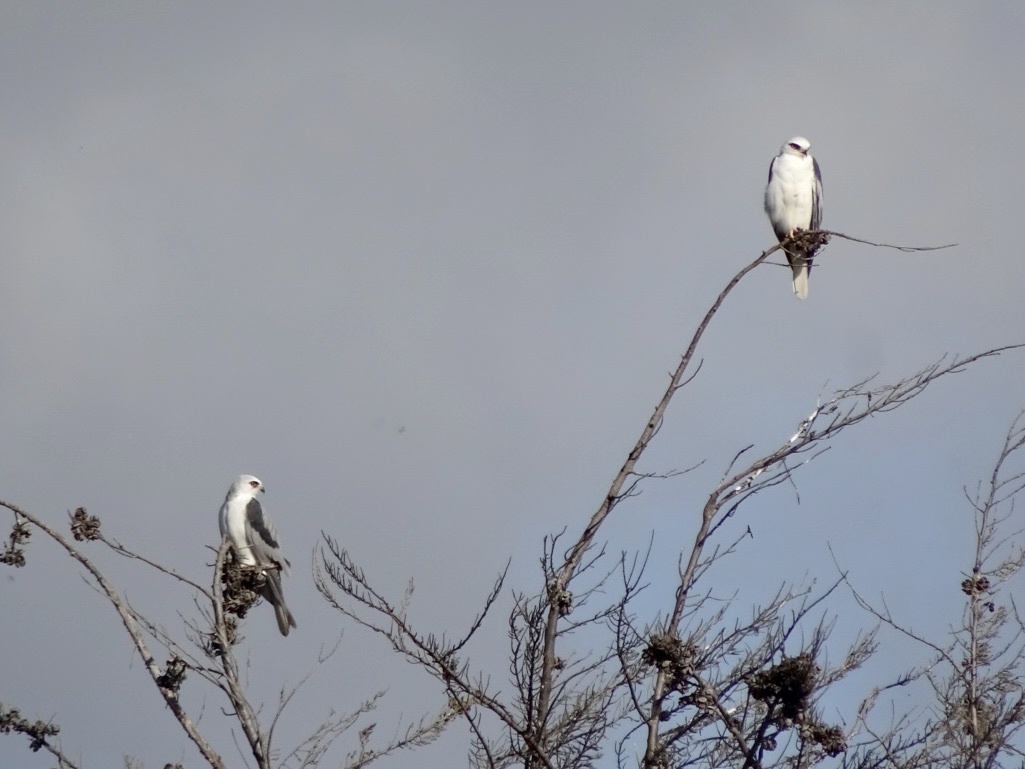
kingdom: Animalia
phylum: Chordata
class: Aves
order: Accipitriformes
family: Accipitridae
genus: Elanus
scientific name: Elanus leucurus
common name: White-tailed kite
